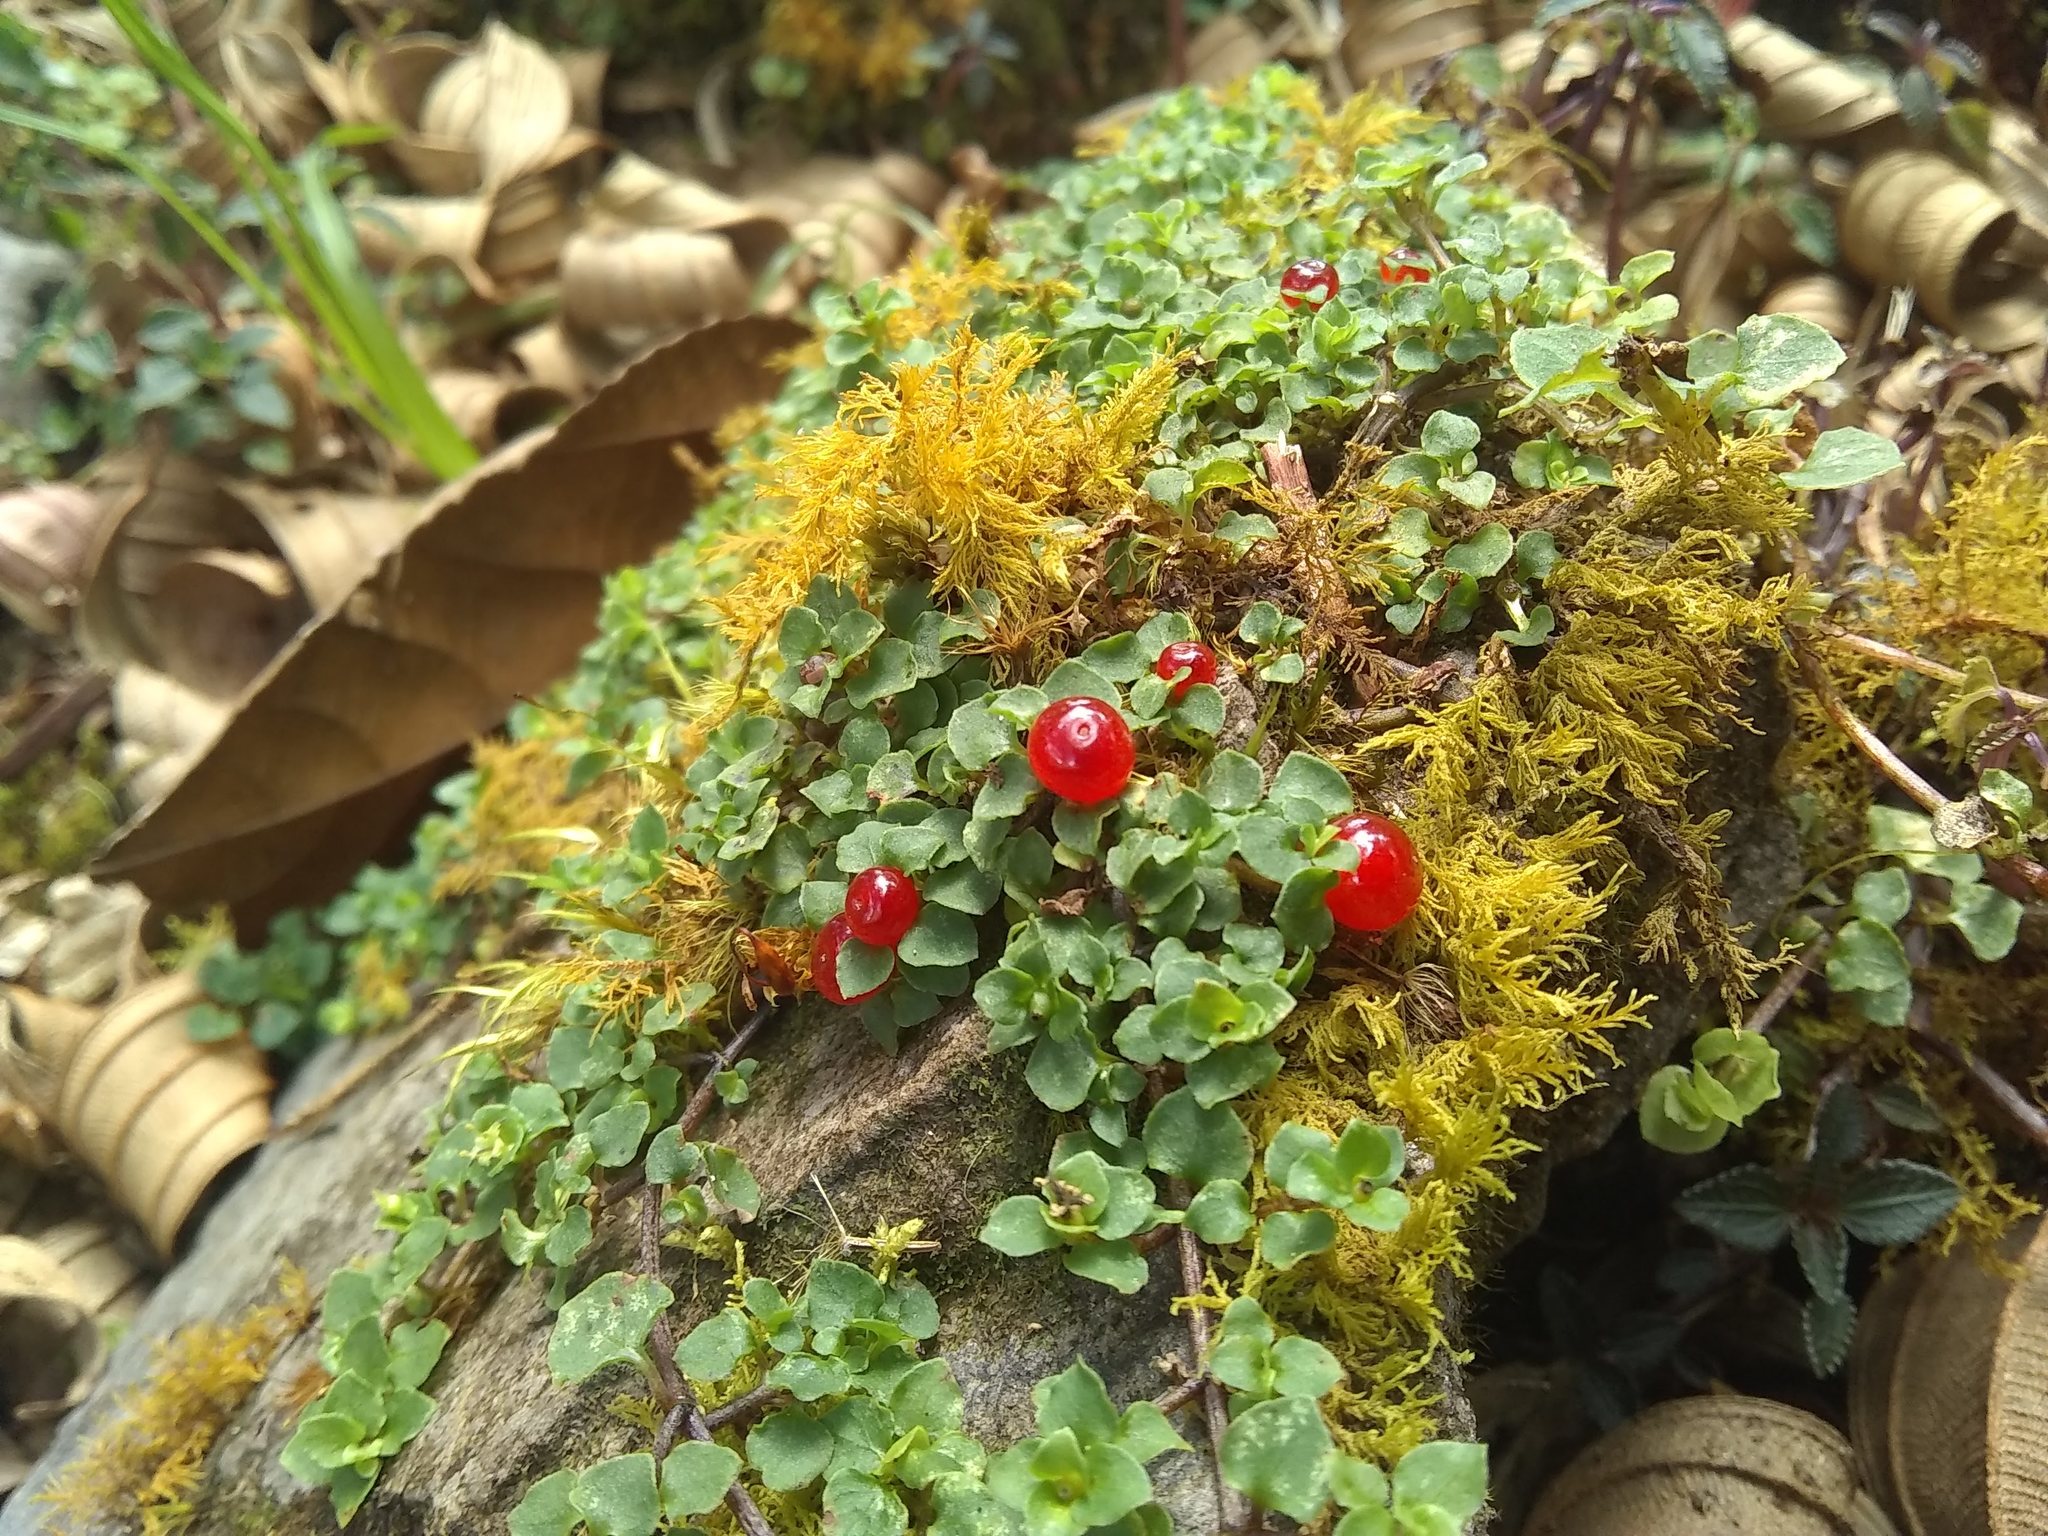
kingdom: Plantae
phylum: Tracheophyta
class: Magnoliopsida
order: Gentianales
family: Rubiaceae
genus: Nertera
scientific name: Nertera granadensis
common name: Beadplant
